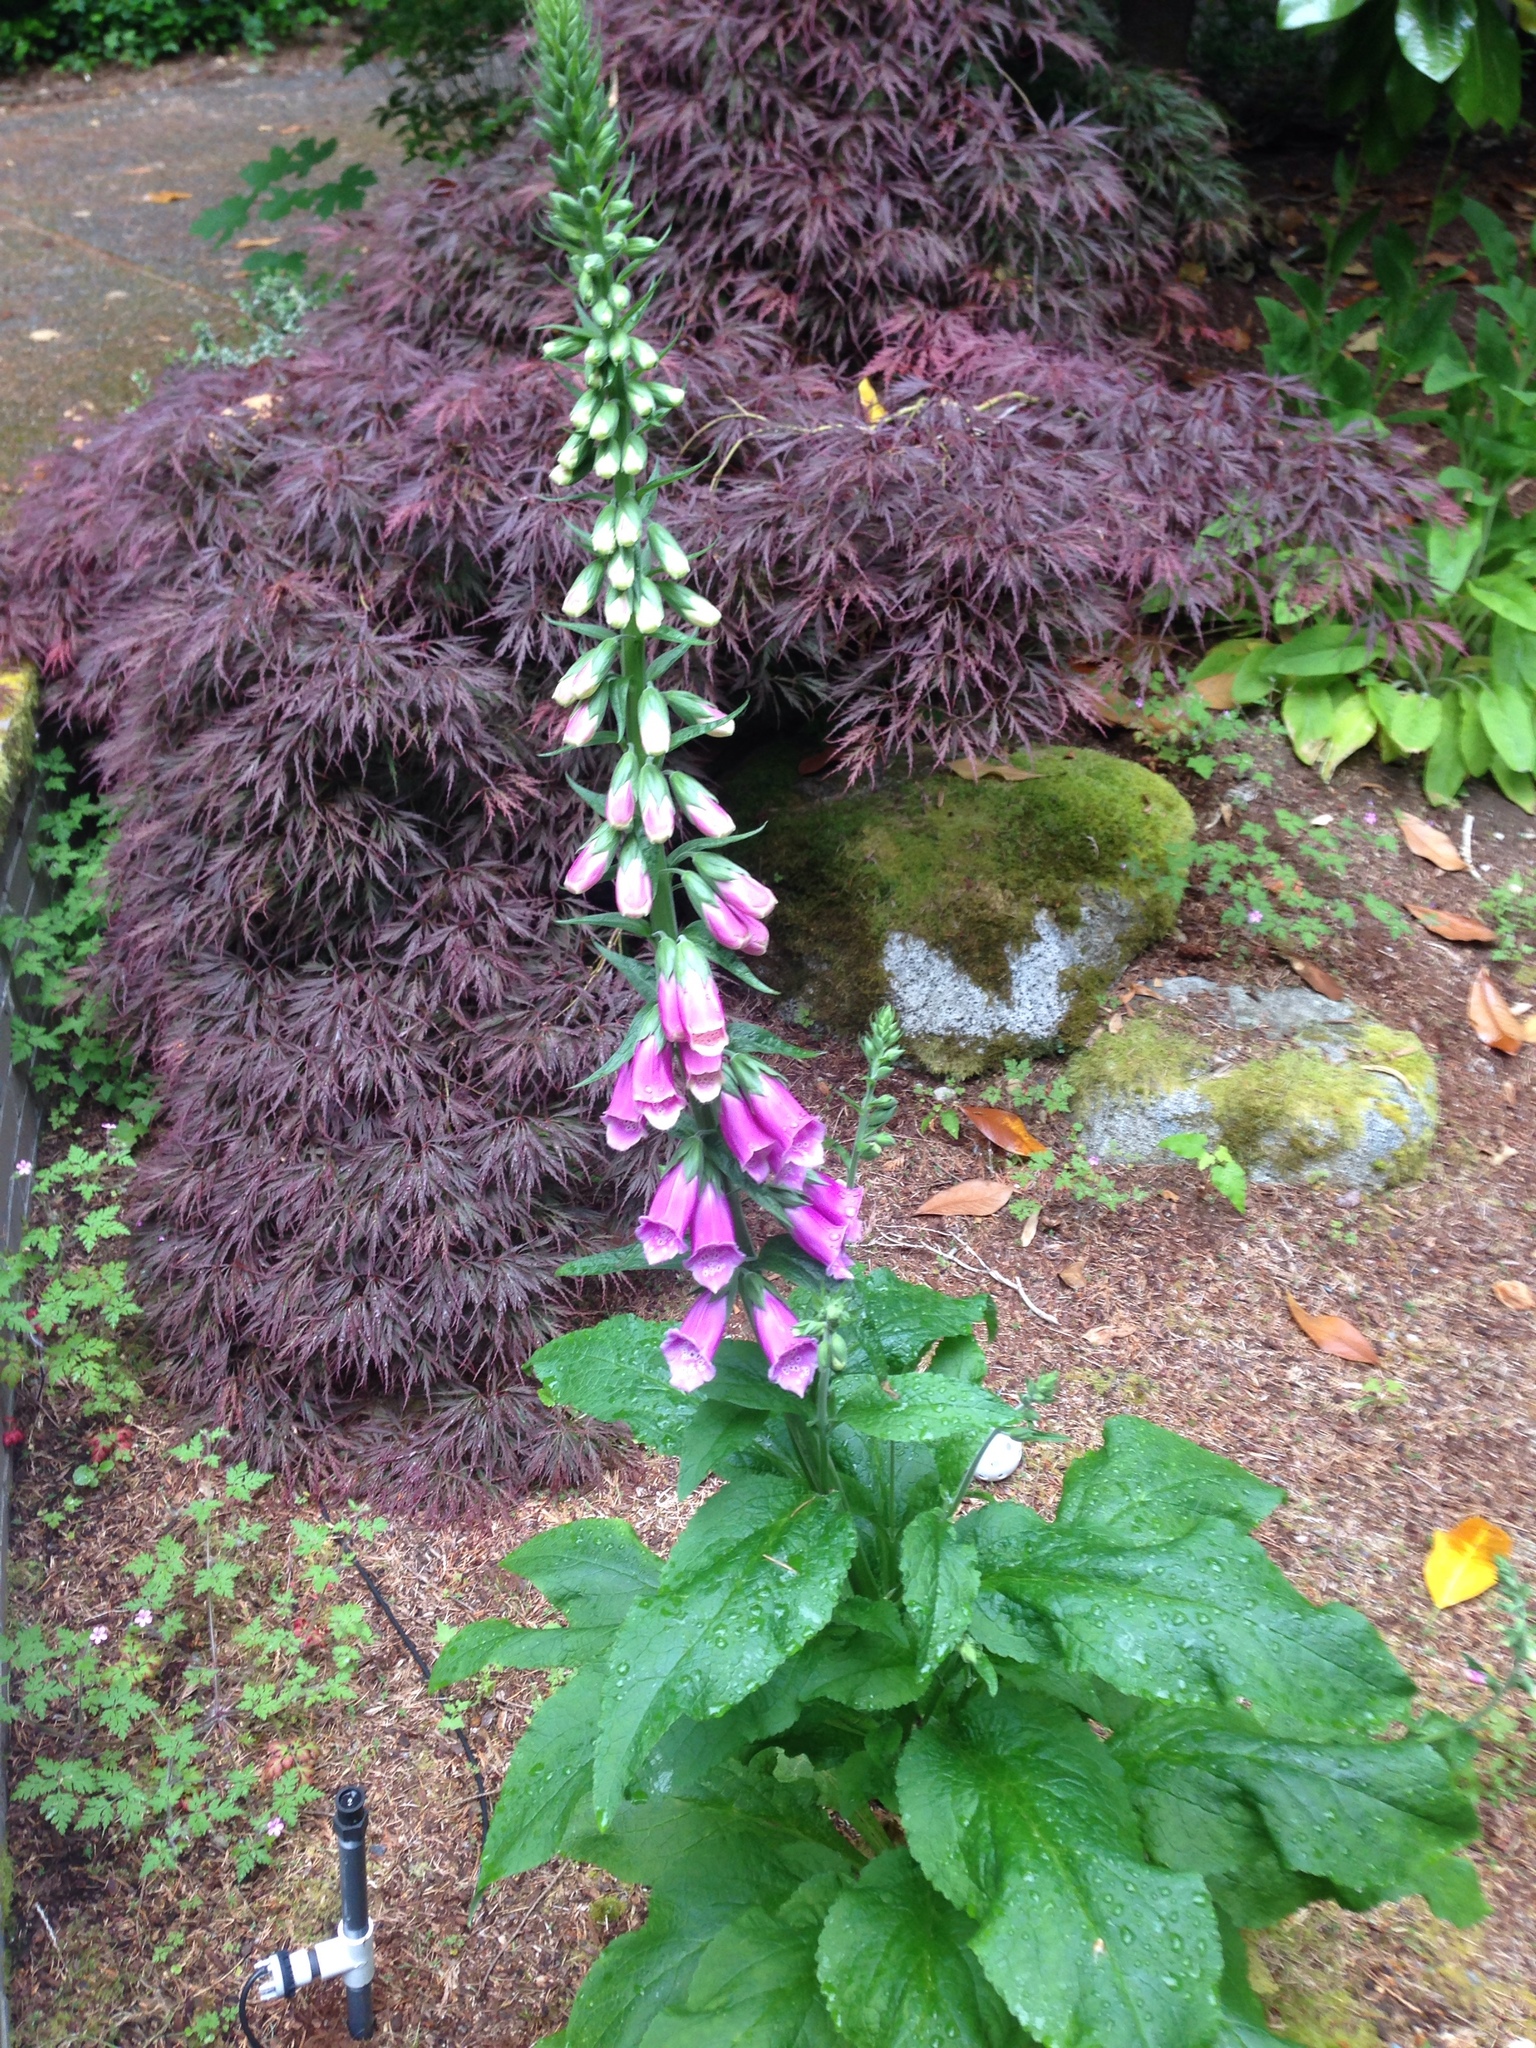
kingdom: Plantae
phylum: Tracheophyta
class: Magnoliopsida
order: Lamiales
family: Plantaginaceae
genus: Digitalis
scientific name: Digitalis purpurea
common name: Foxglove
